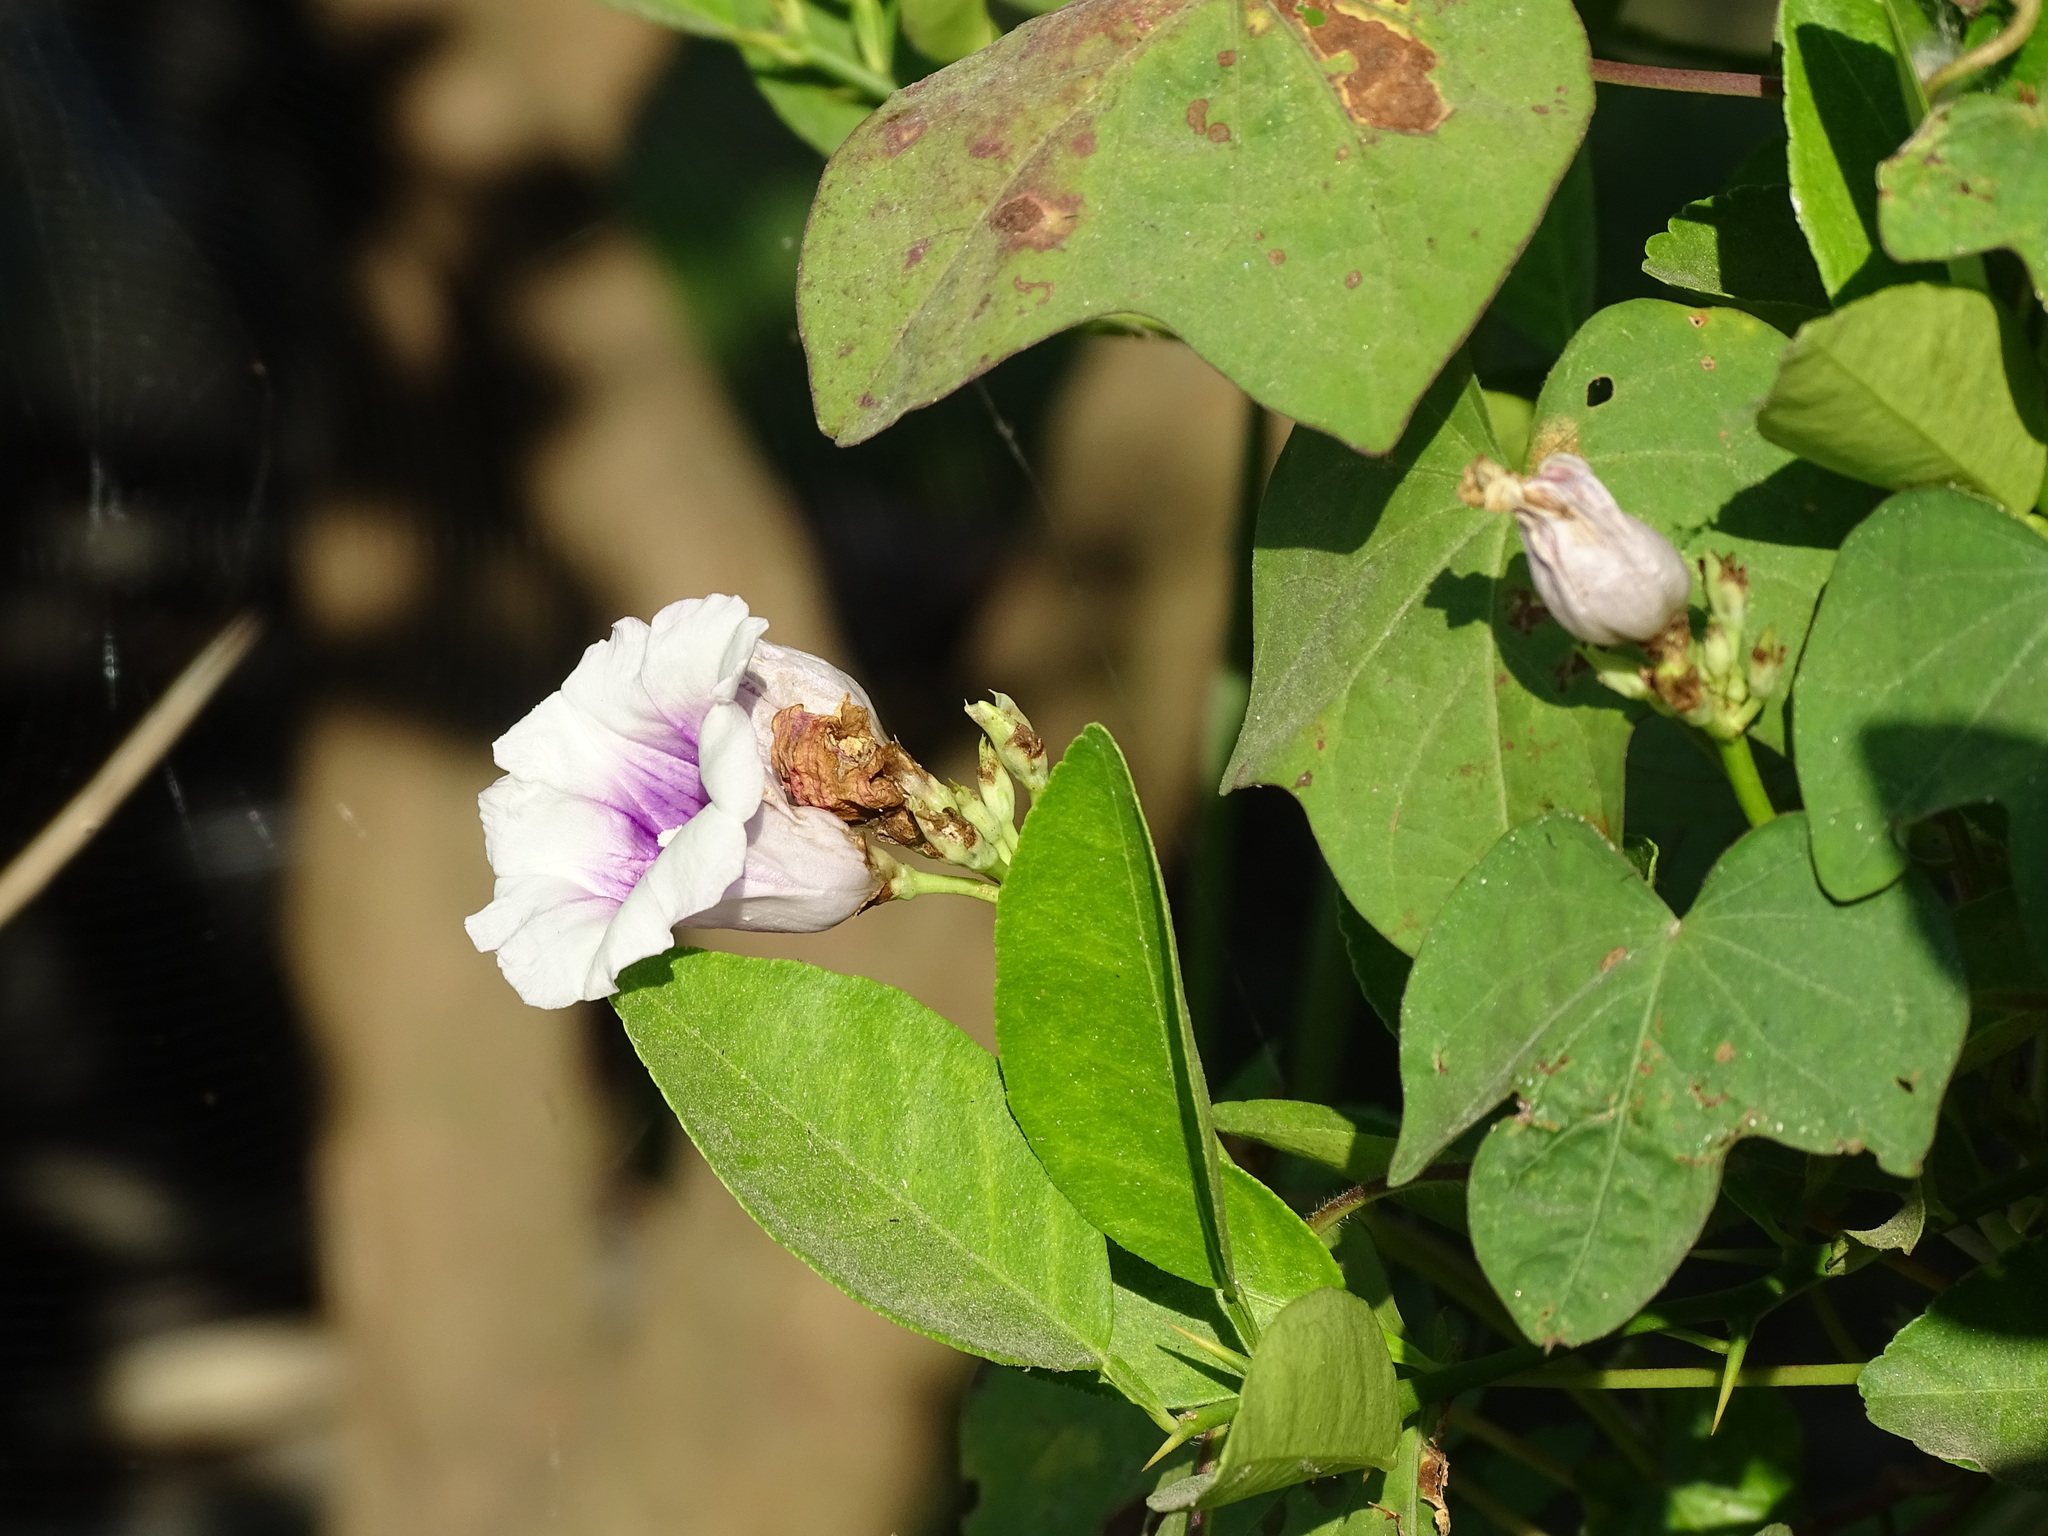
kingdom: Plantae
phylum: Tracheophyta
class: Magnoliopsida
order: Solanales
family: Convolvulaceae
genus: Ipomoea
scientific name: Ipomoea batatas
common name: Sweet-potato
